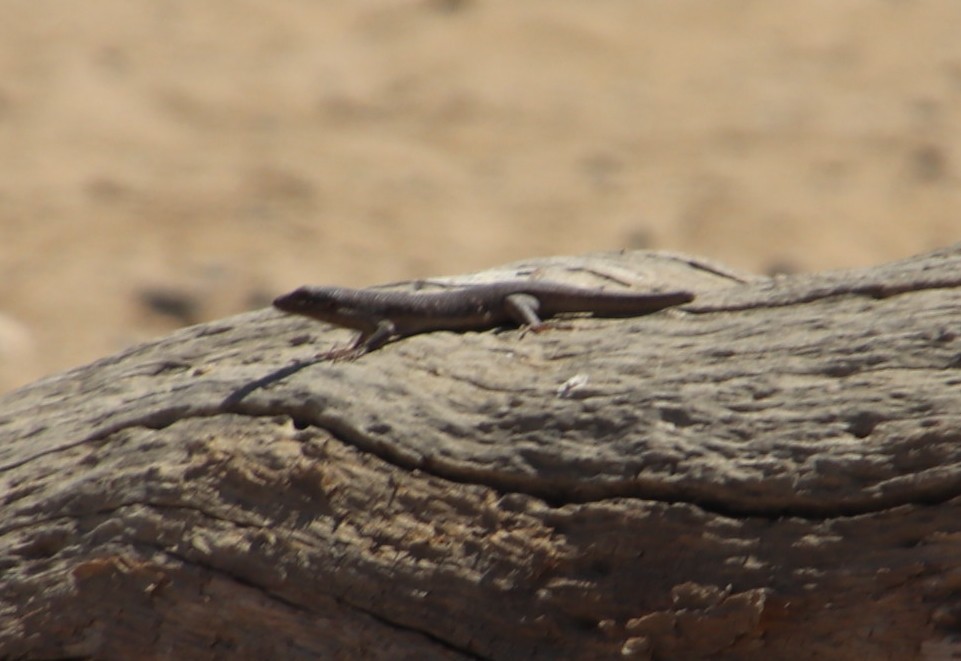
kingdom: Animalia
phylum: Chordata
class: Squamata
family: Scincidae
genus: Trachylepis
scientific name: Trachylepis sparsa
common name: Karasburg tree skink
